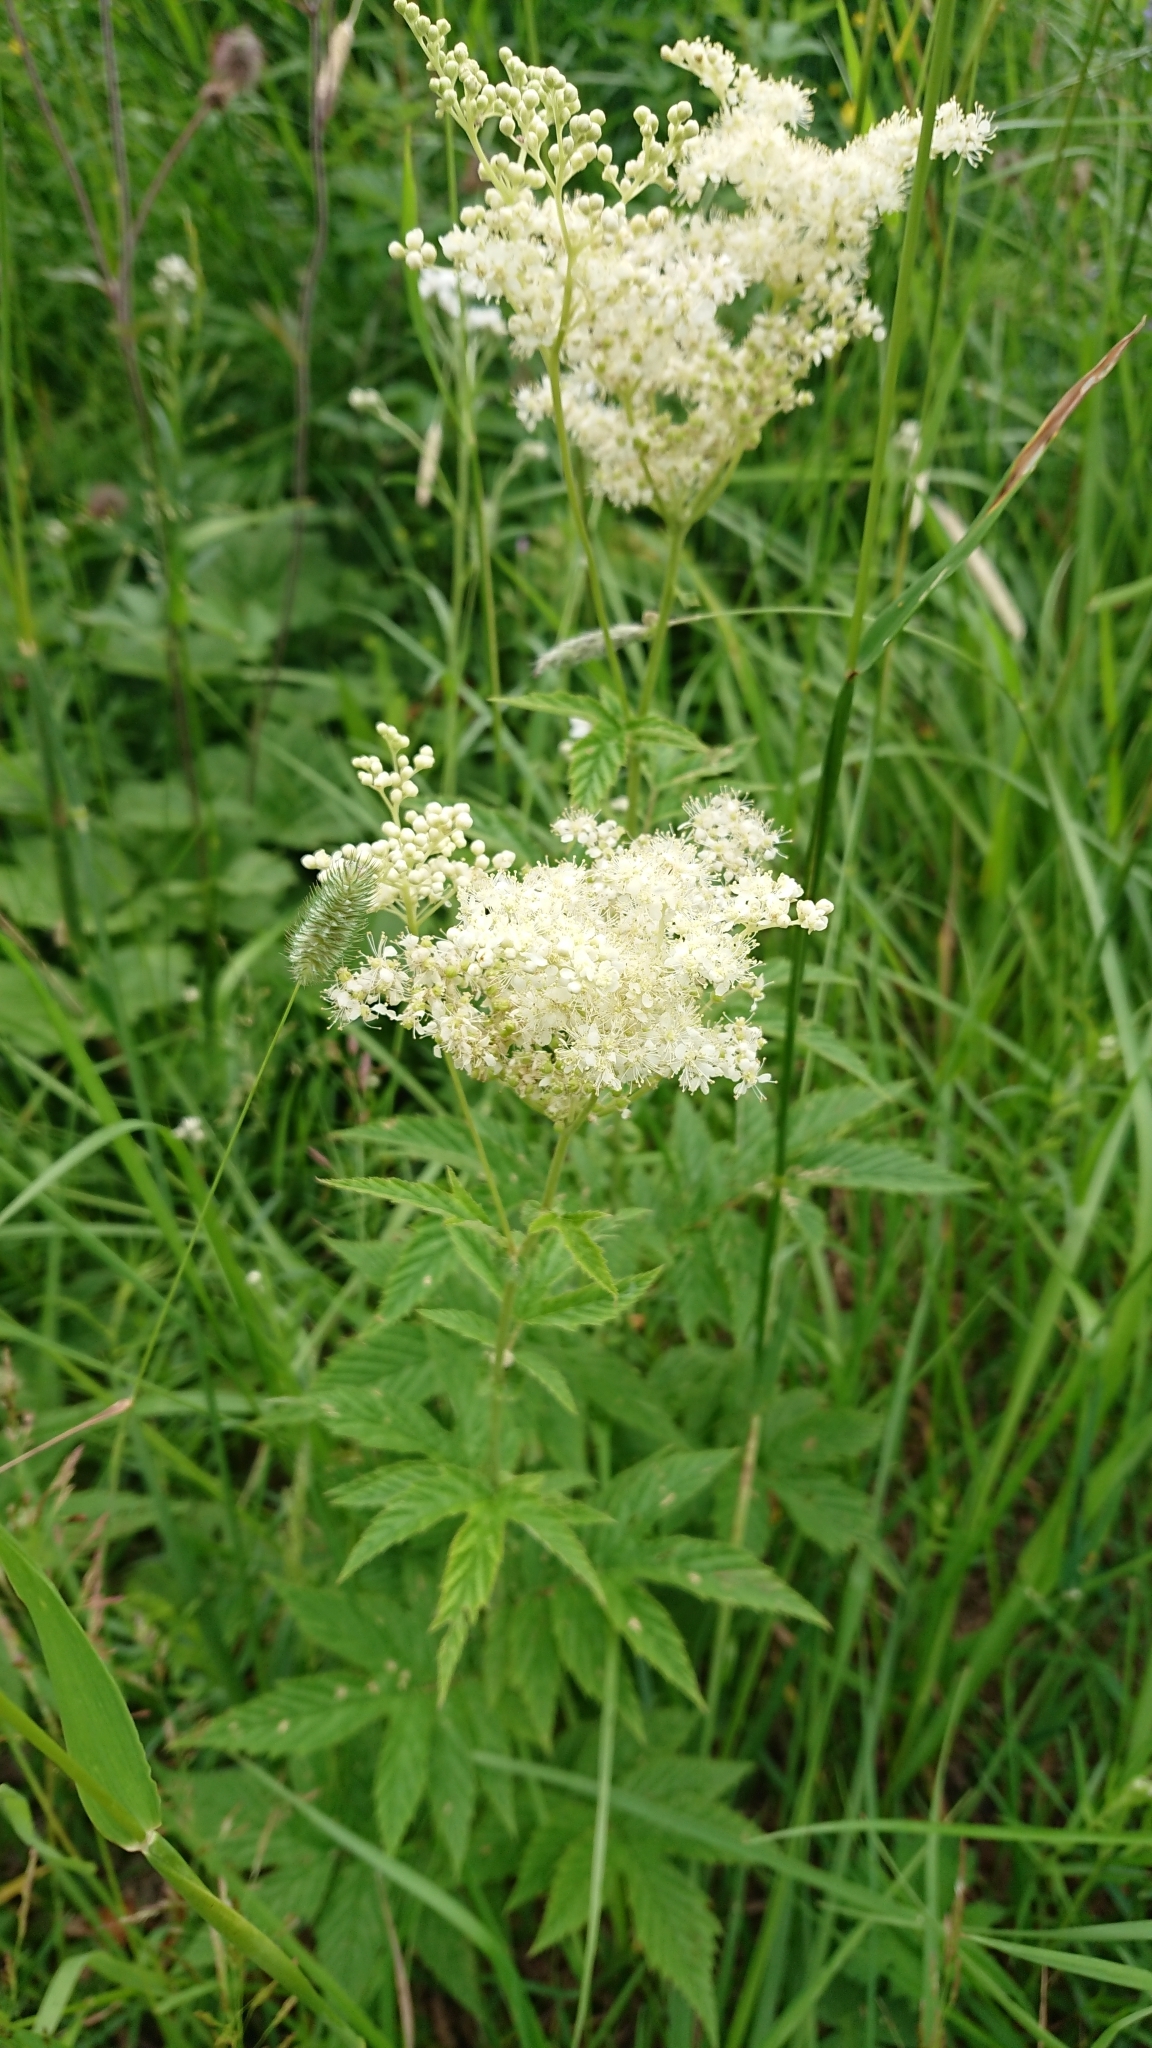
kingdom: Plantae
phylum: Tracheophyta
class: Magnoliopsida
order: Rosales
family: Rosaceae
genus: Filipendula
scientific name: Filipendula ulmaria
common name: Meadowsweet
